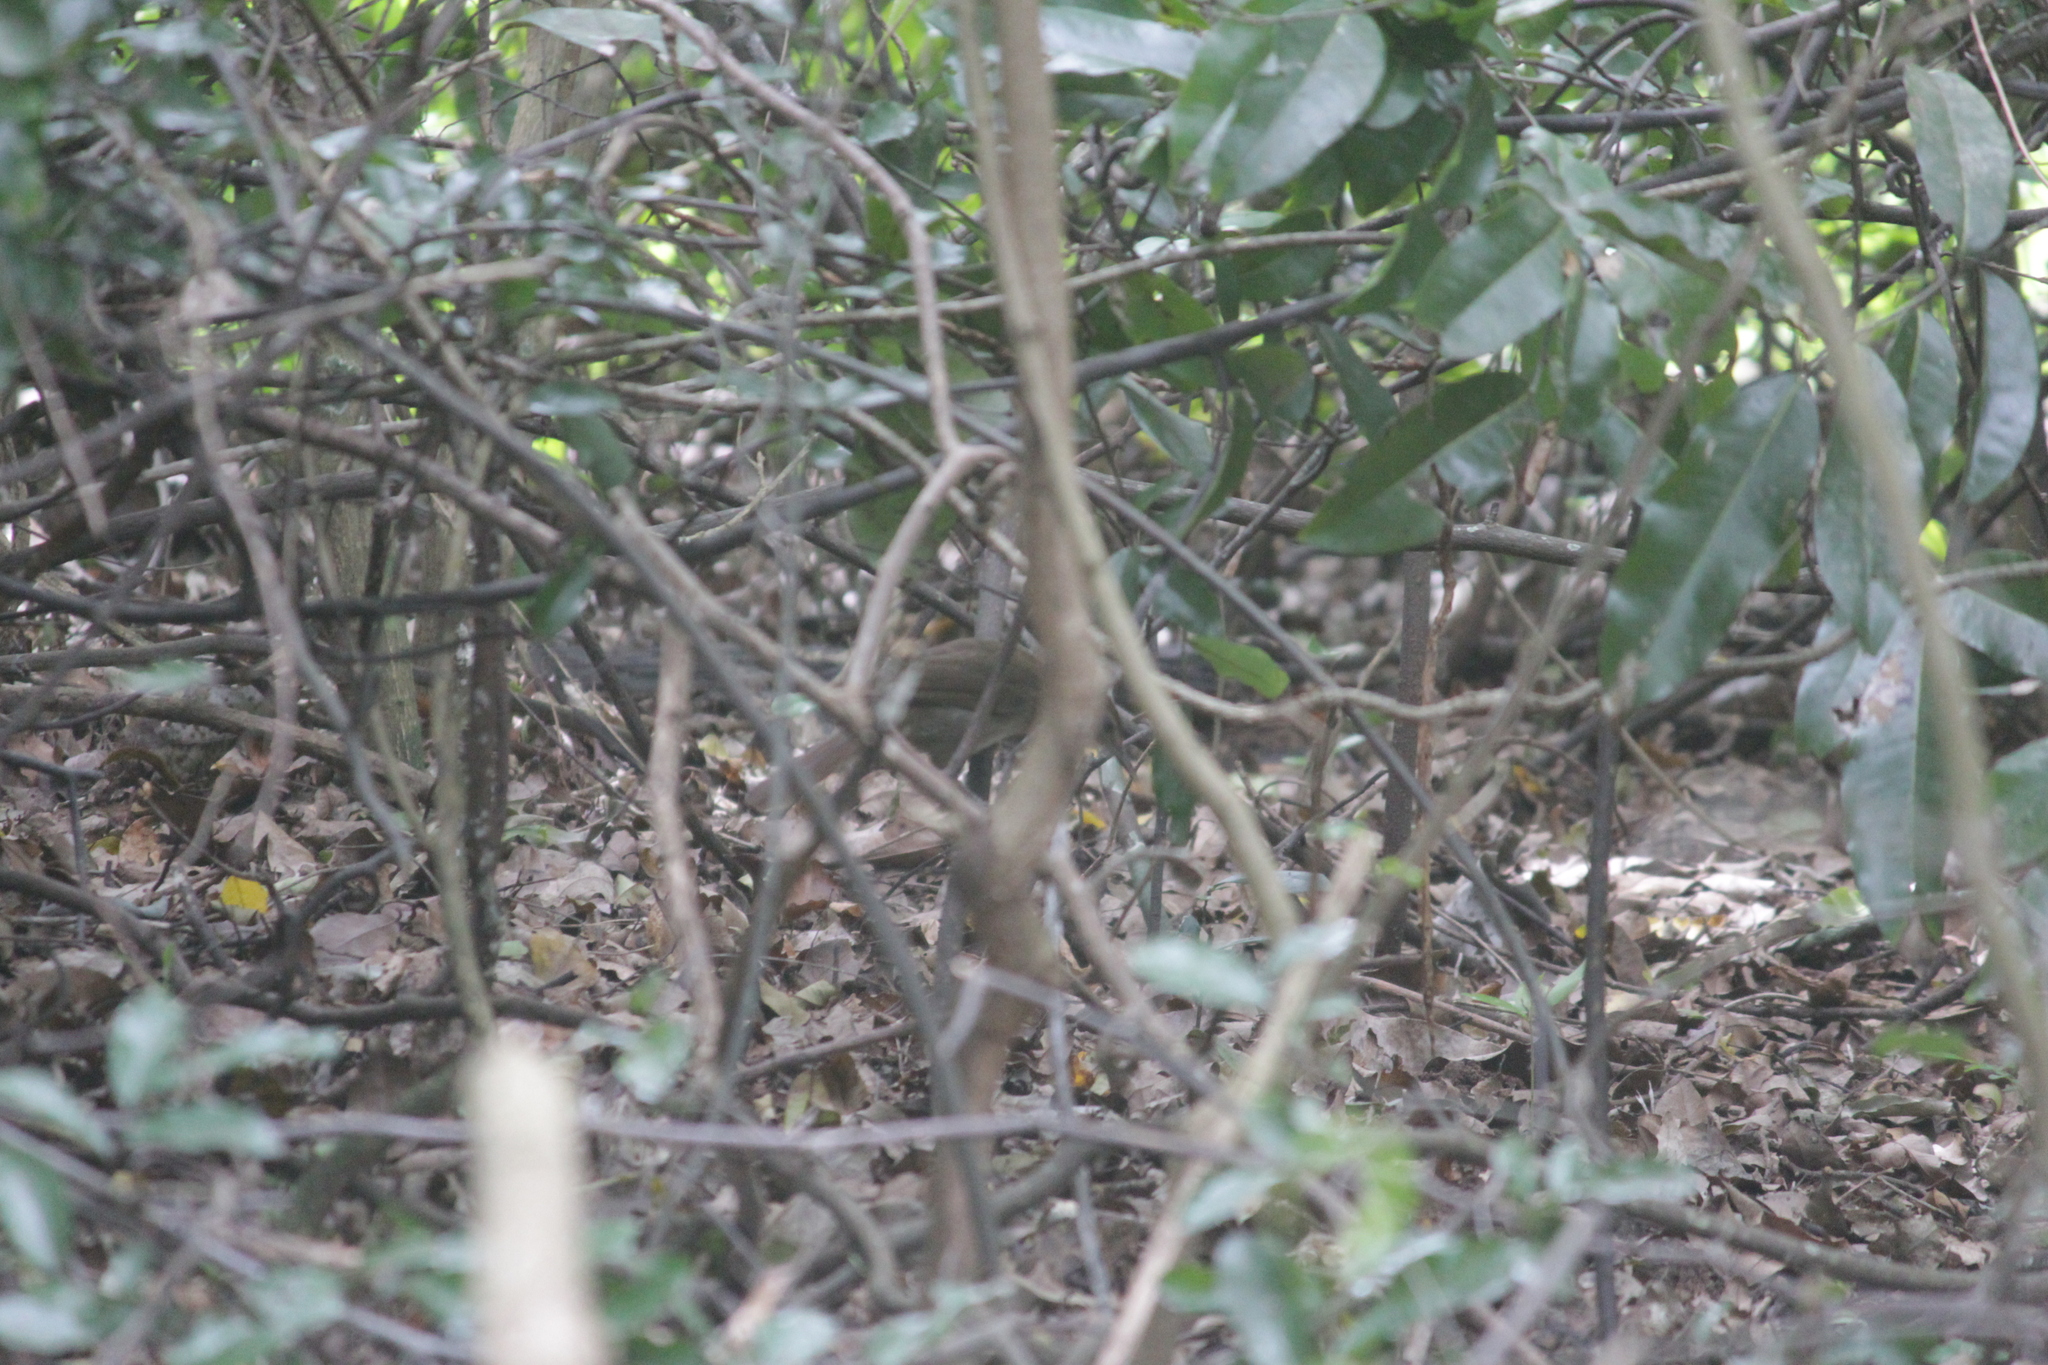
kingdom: Animalia
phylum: Chordata
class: Aves
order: Passeriformes
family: Pycnonotidae
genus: Phyllastrephus
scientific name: Phyllastrephus terrestris
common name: Terrestrial brownbul
